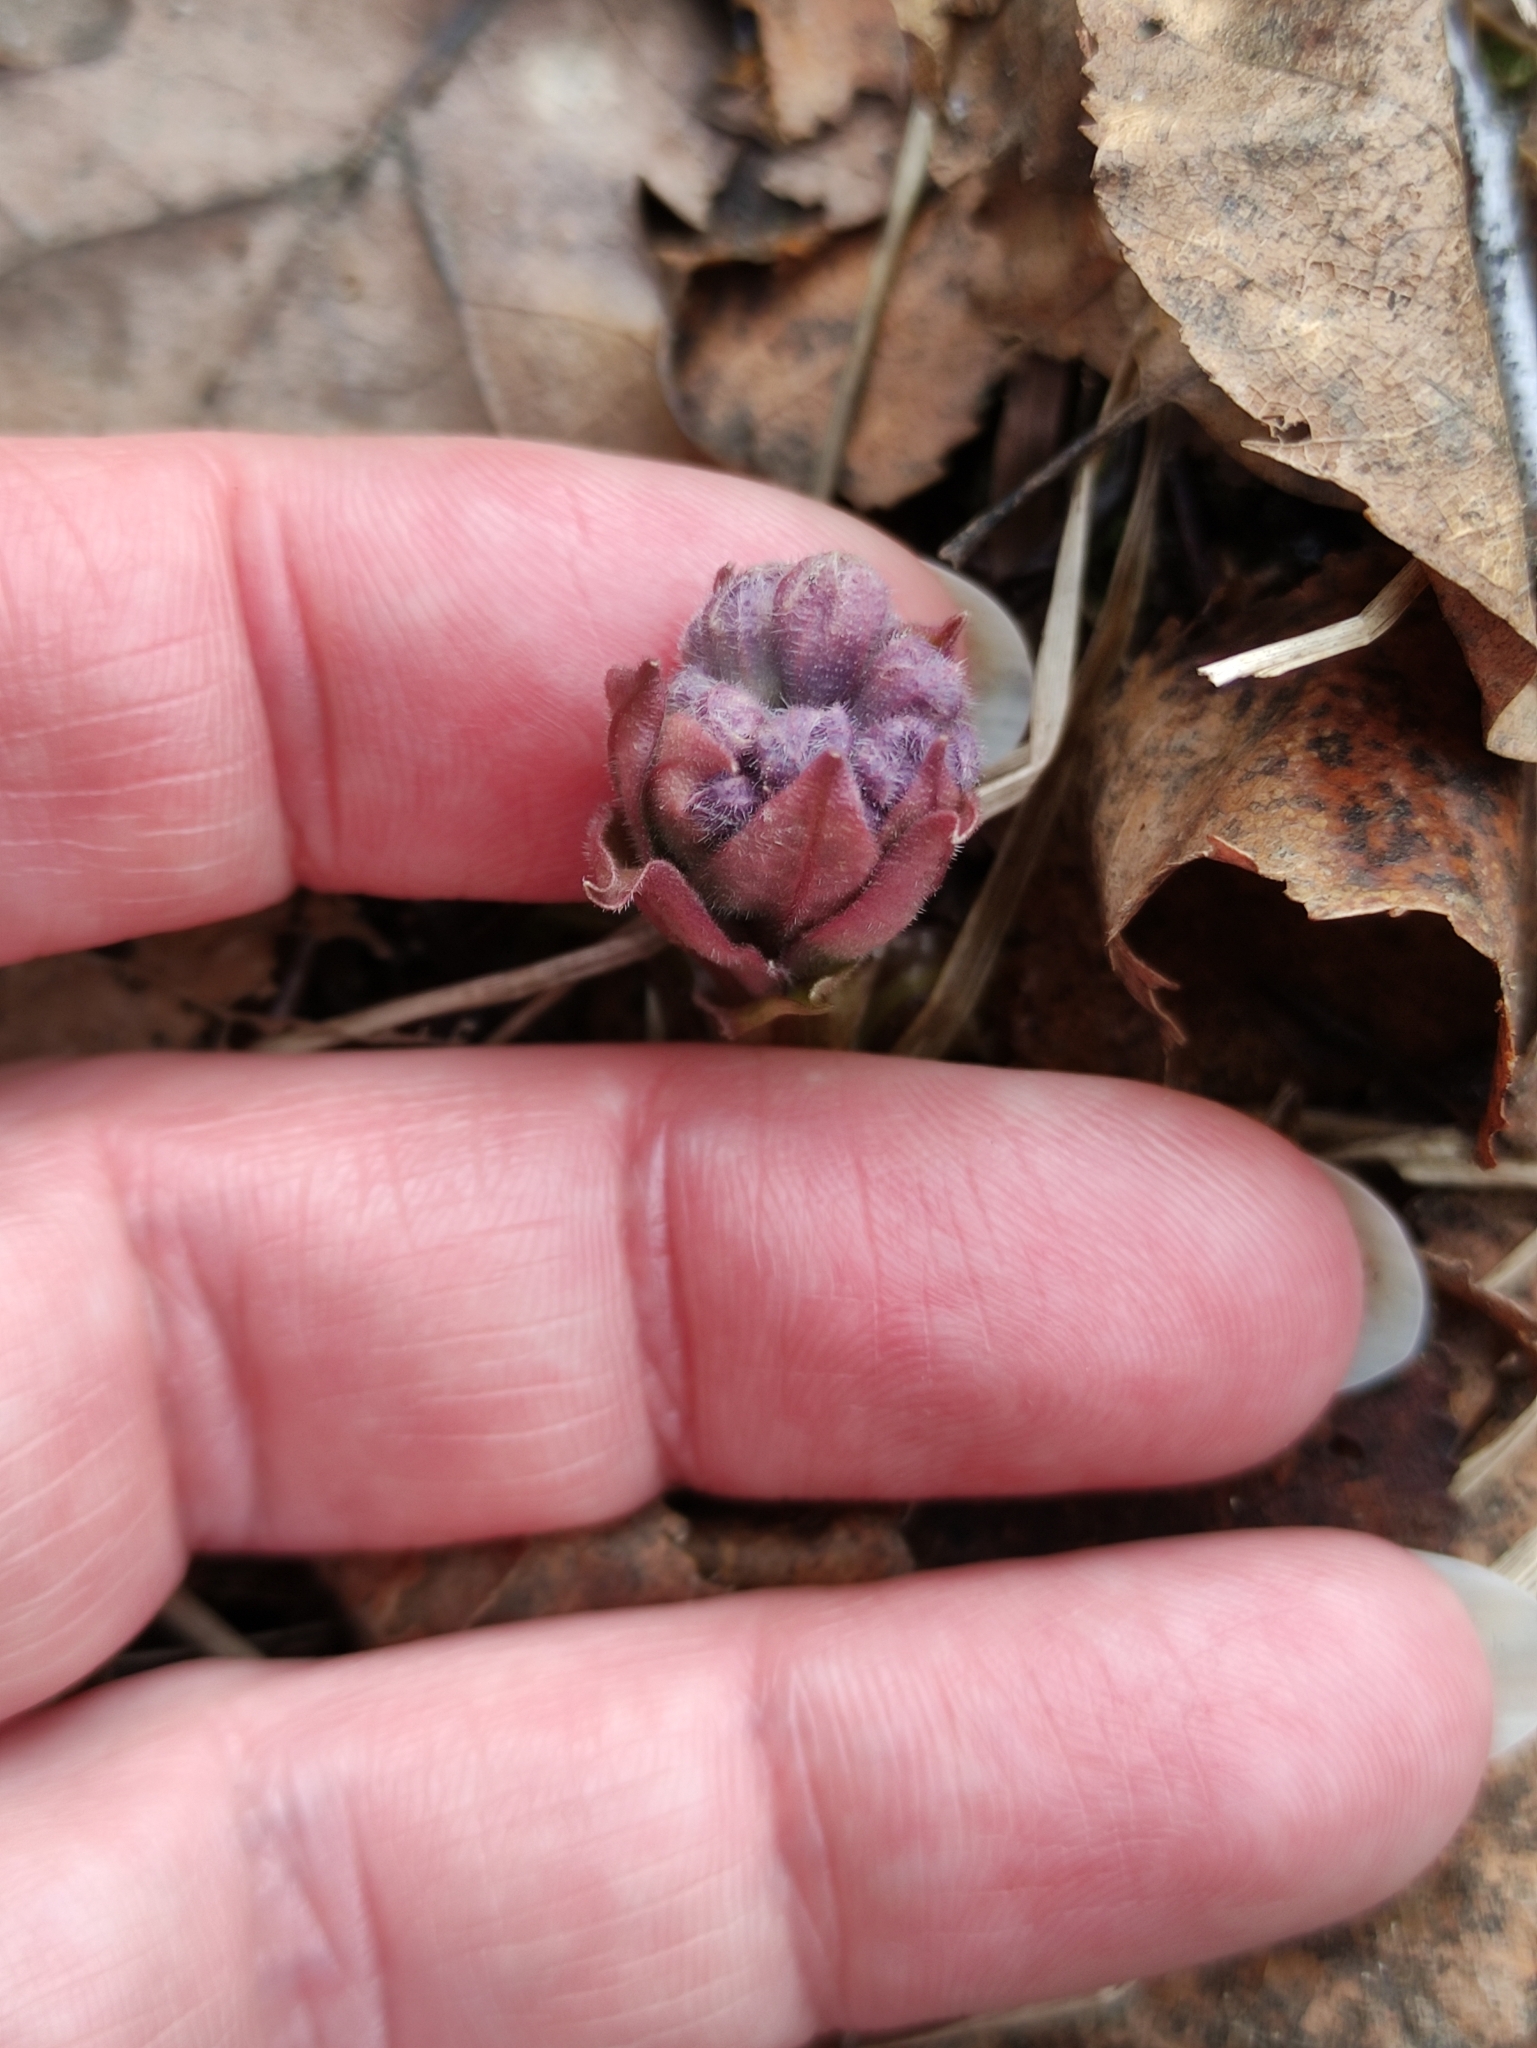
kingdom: Plantae
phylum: Tracheophyta
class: Magnoliopsida
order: Boraginales
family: Boraginaceae
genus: Pulmonaria
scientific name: Pulmonaria obscura
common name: Suffolk lungwort
